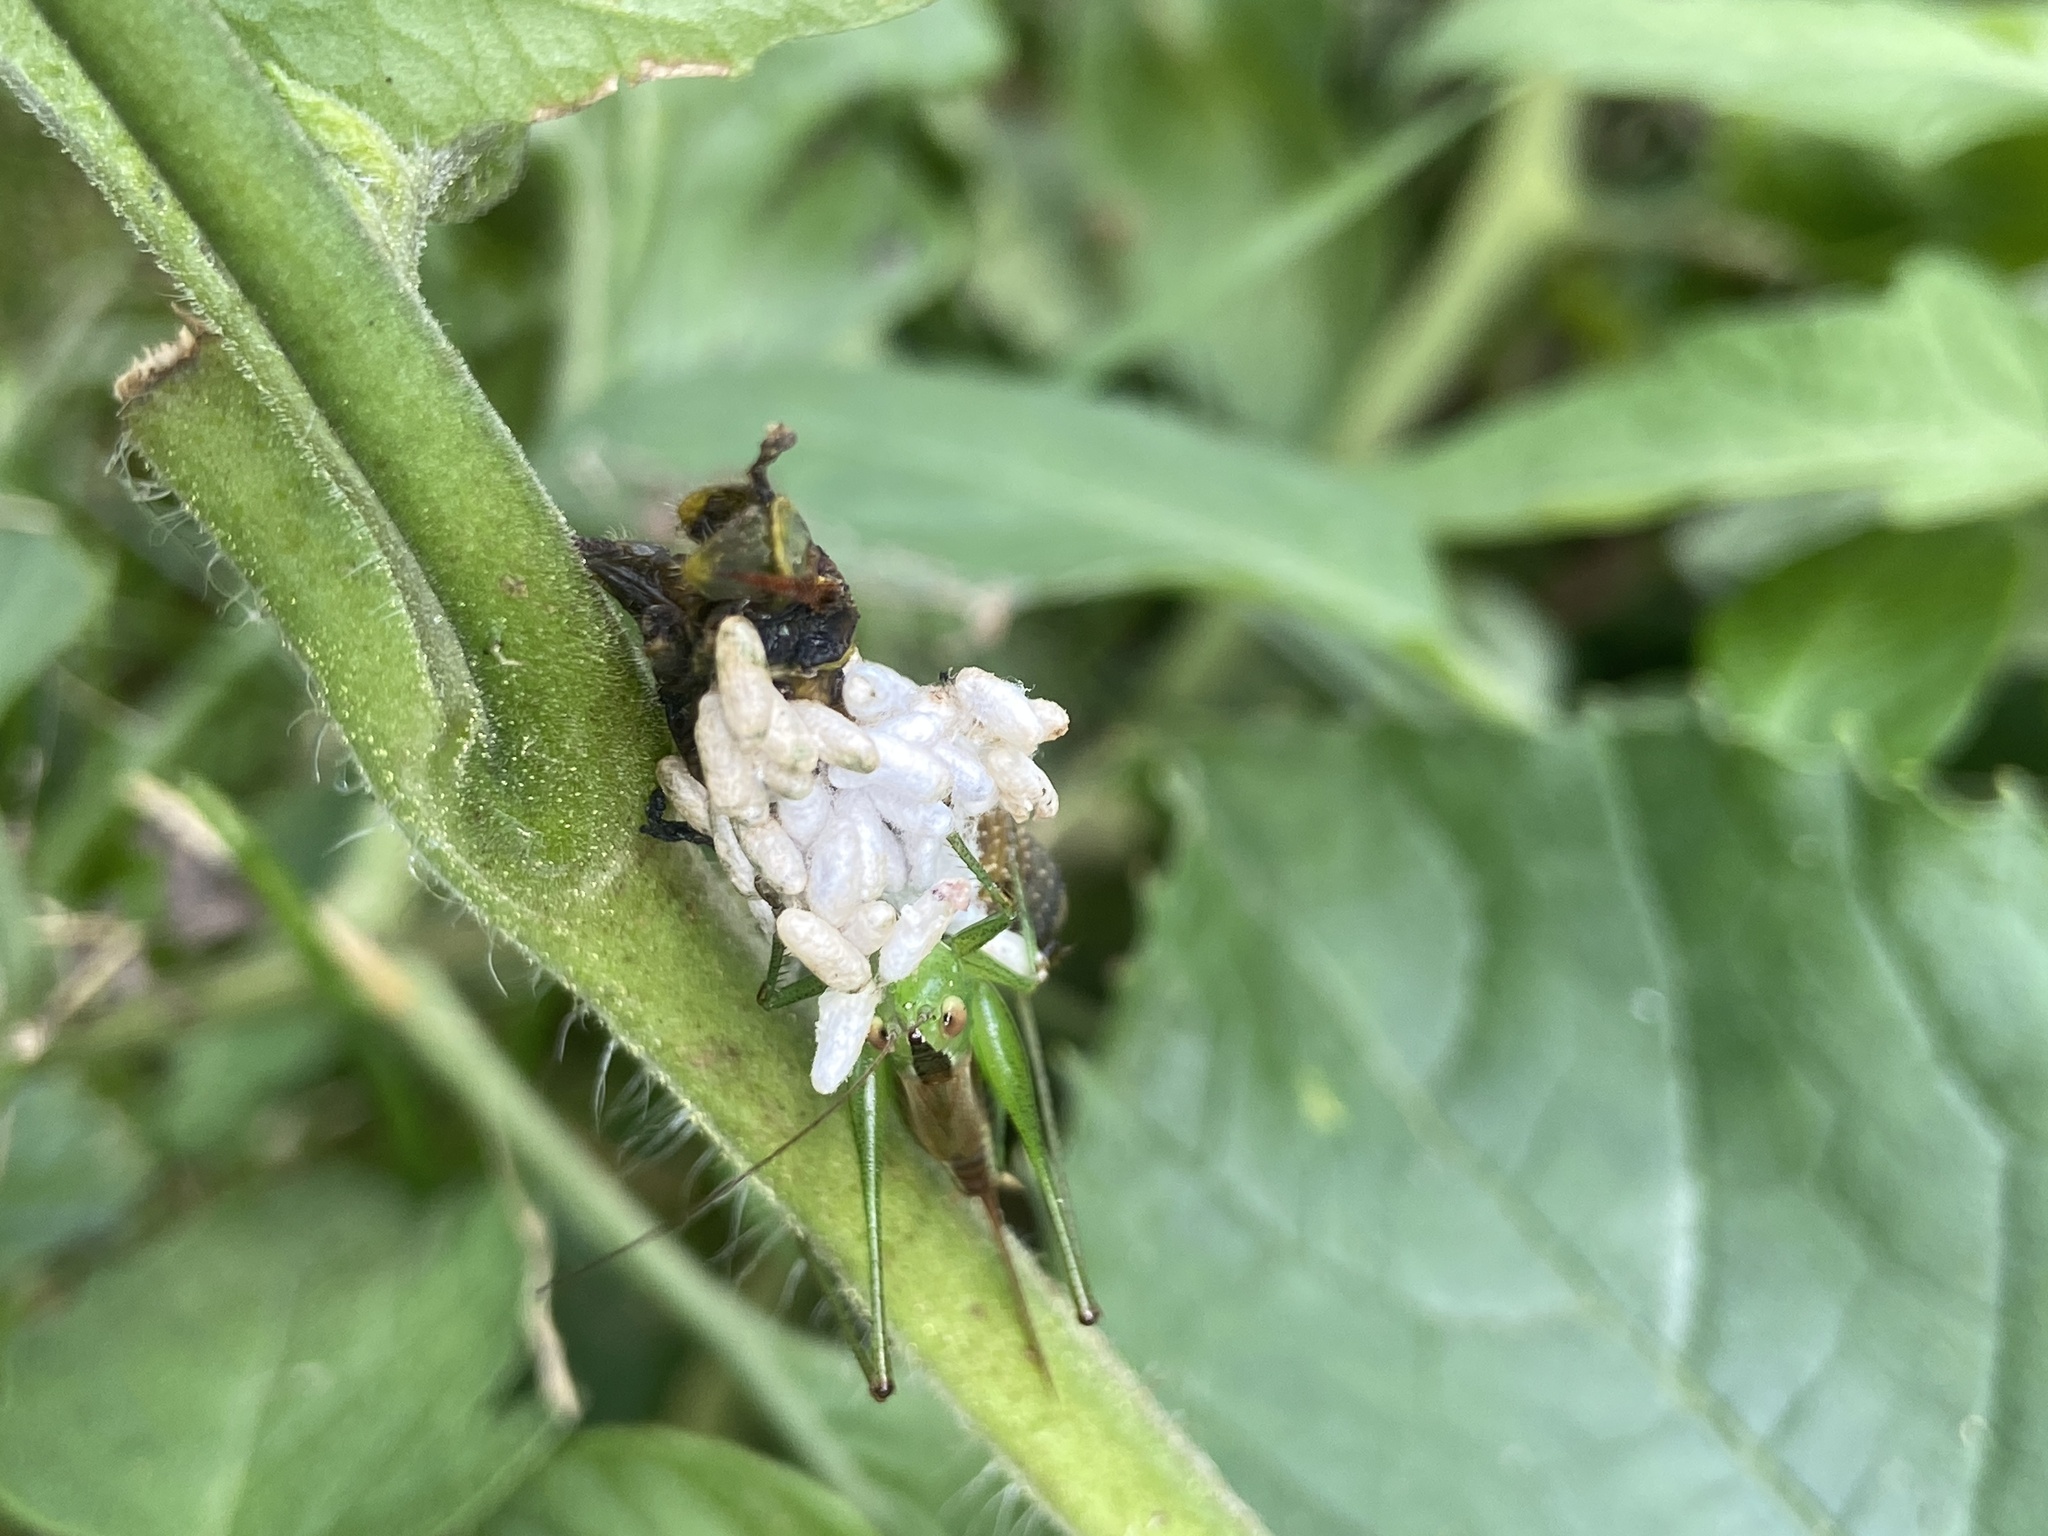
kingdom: Animalia
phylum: Arthropoda
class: Insecta
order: Orthoptera
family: Tettigoniidae
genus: Conocephalus
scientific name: Conocephalus brevipennis
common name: Short-winged meadow katydid
